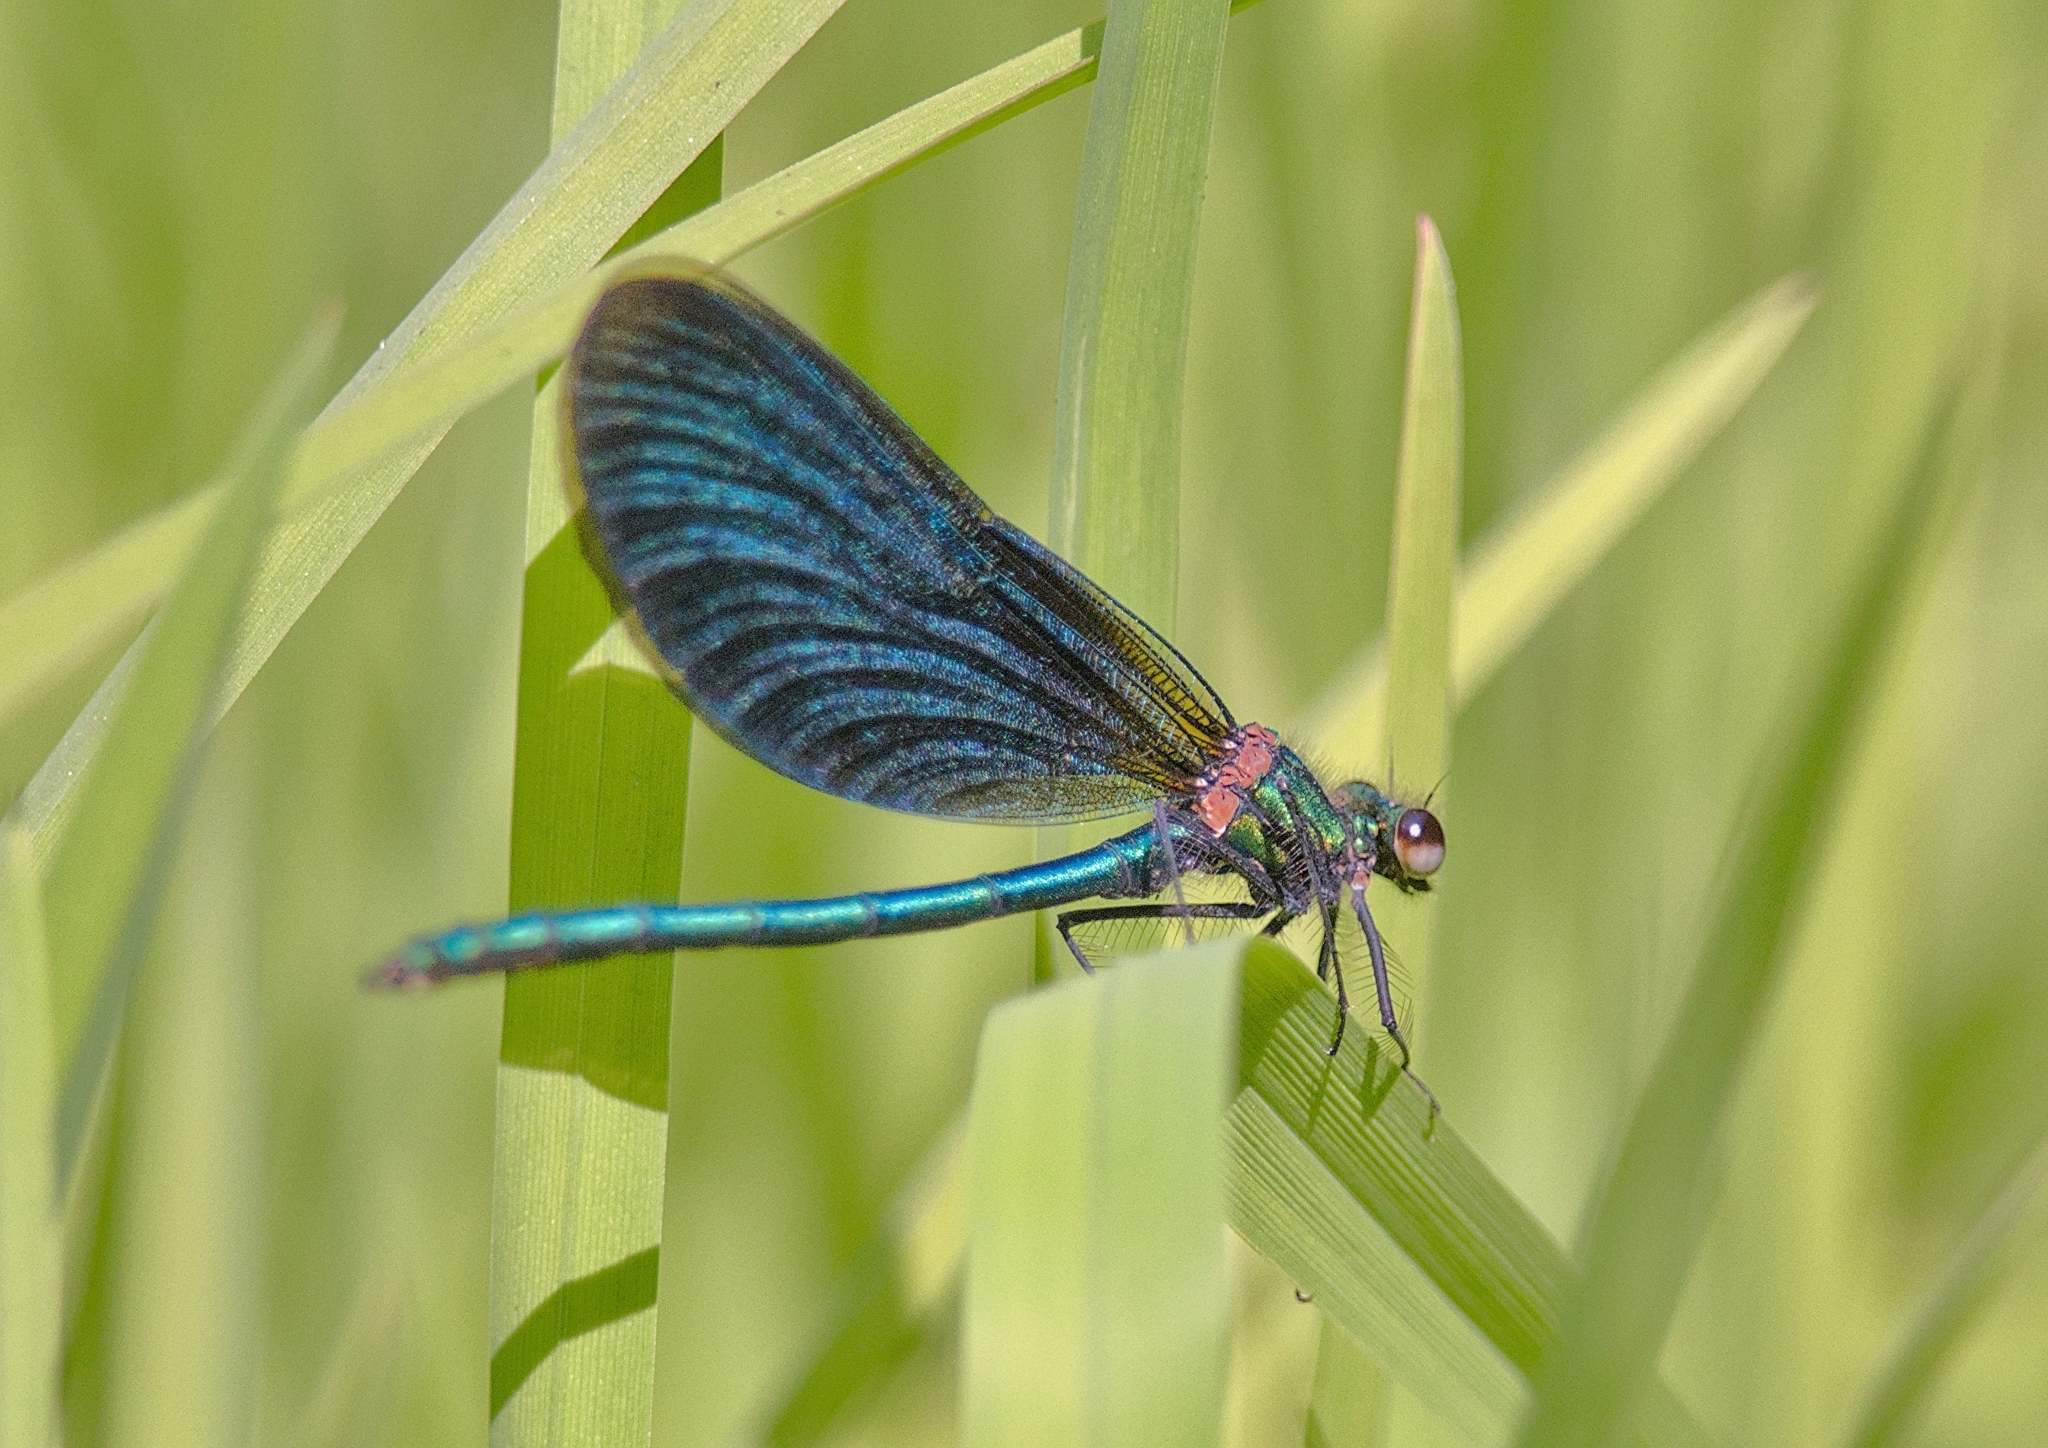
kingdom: Animalia
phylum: Arthropoda
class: Insecta
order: Odonata
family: Calopterygidae
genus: Calopteryx
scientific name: Calopteryx virgo
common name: Beautiful demoiselle
